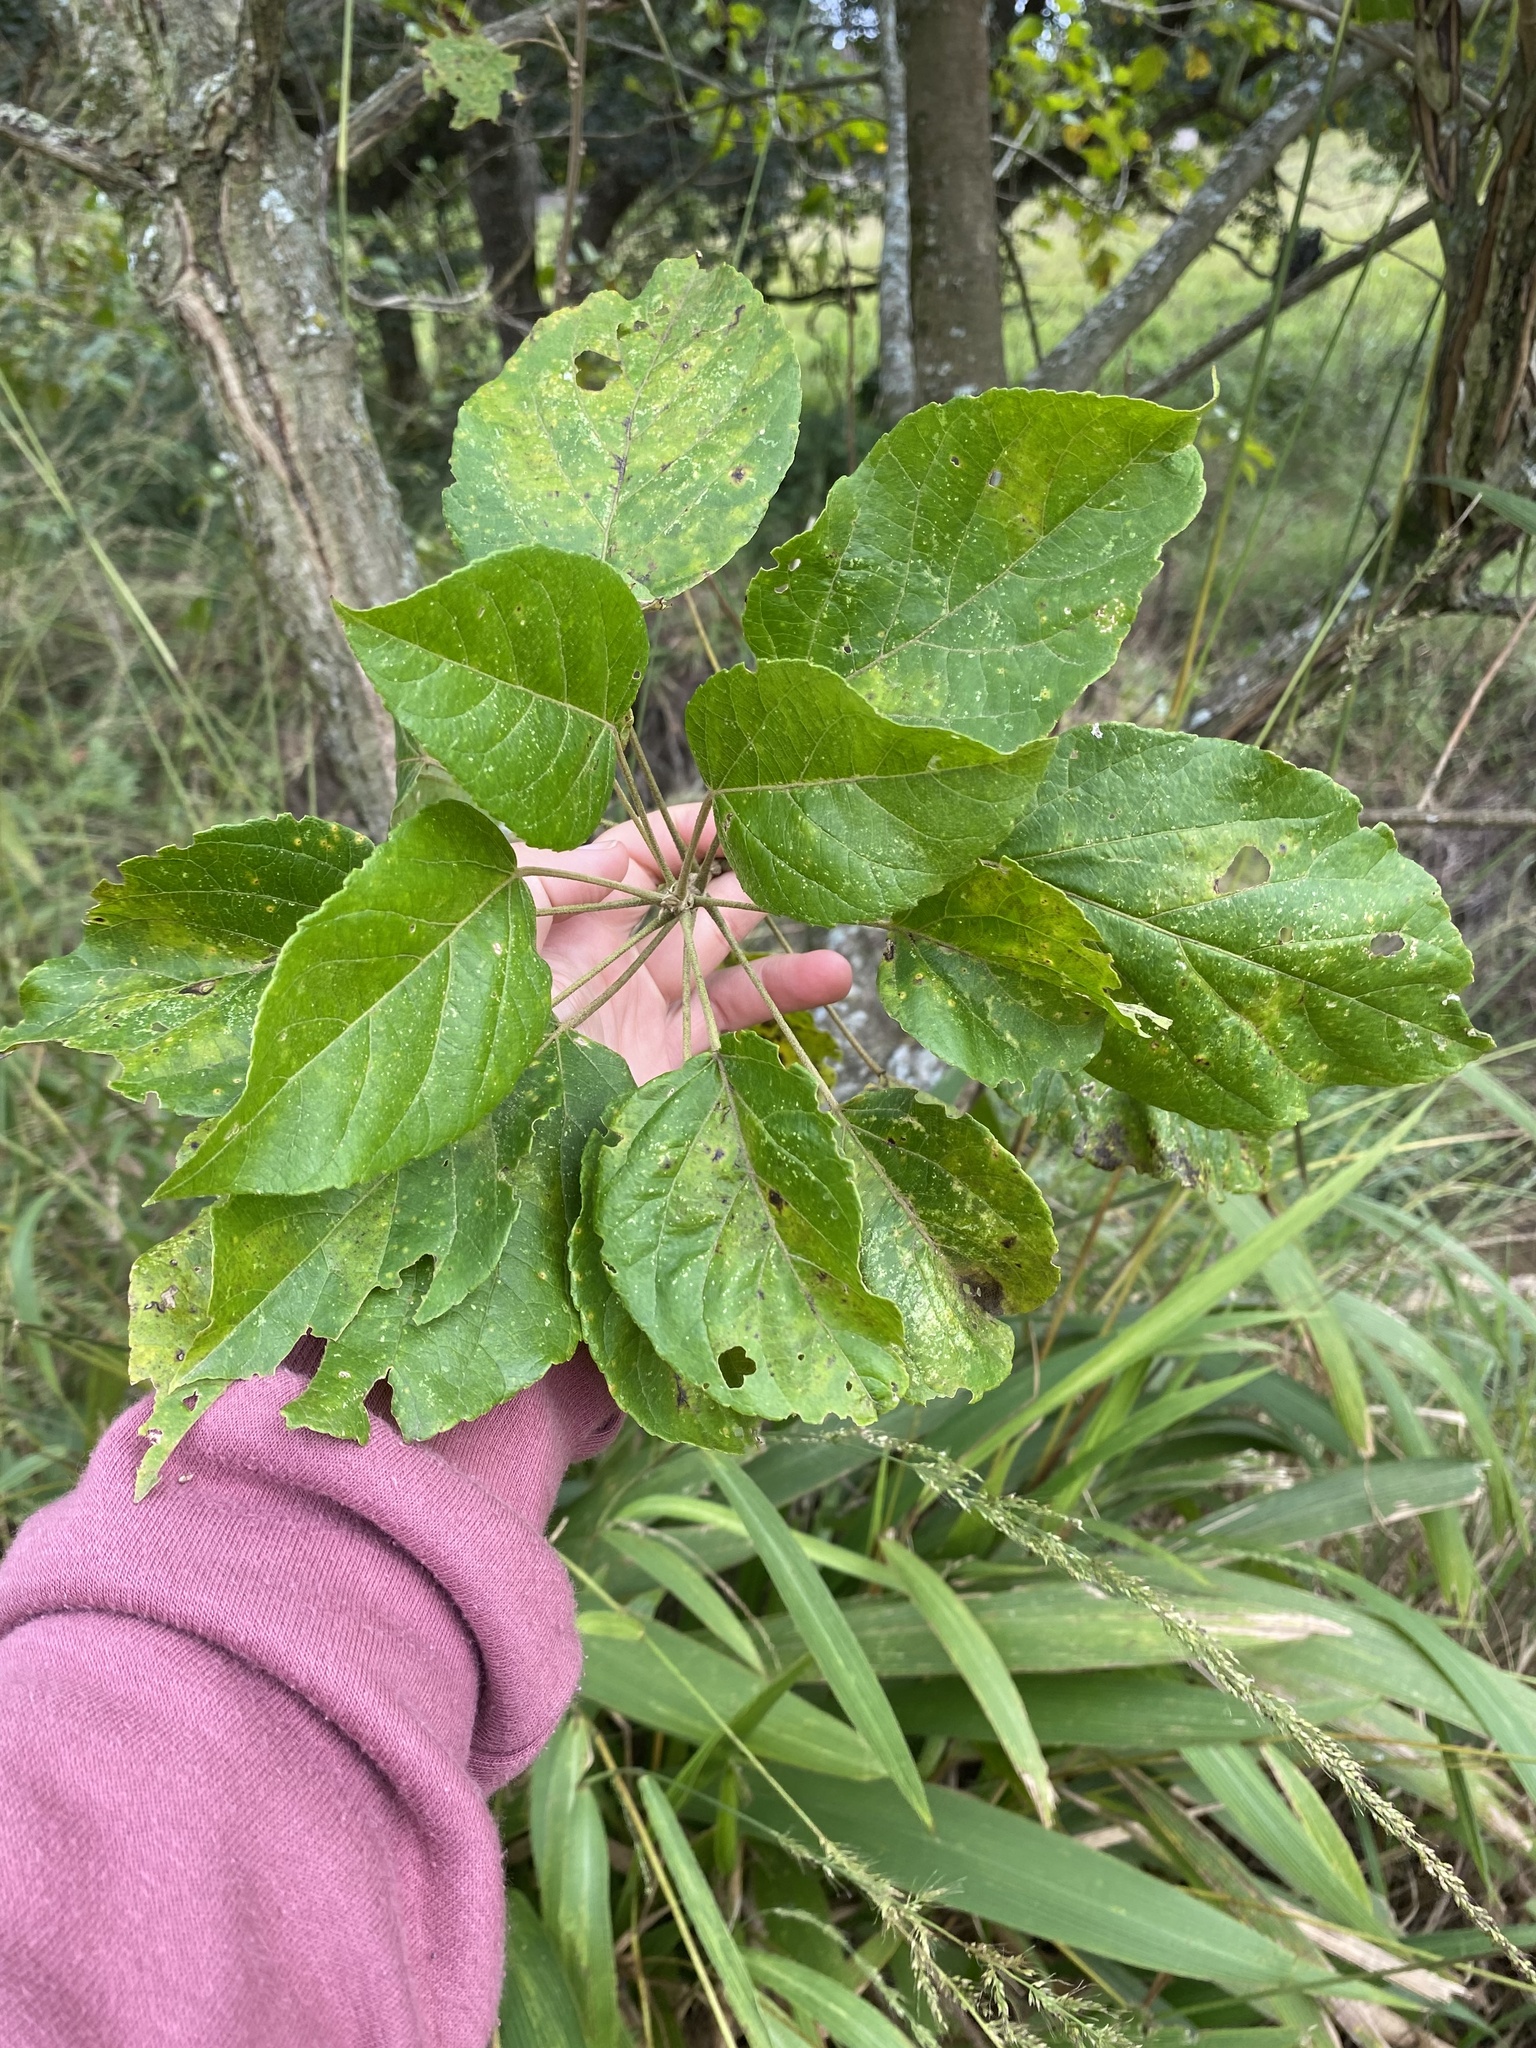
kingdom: Plantae
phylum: Tracheophyta
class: Magnoliopsida
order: Malpighiales
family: Euphorbiaceae
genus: Croton
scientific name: Croton sylvaticus
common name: Forest croton
